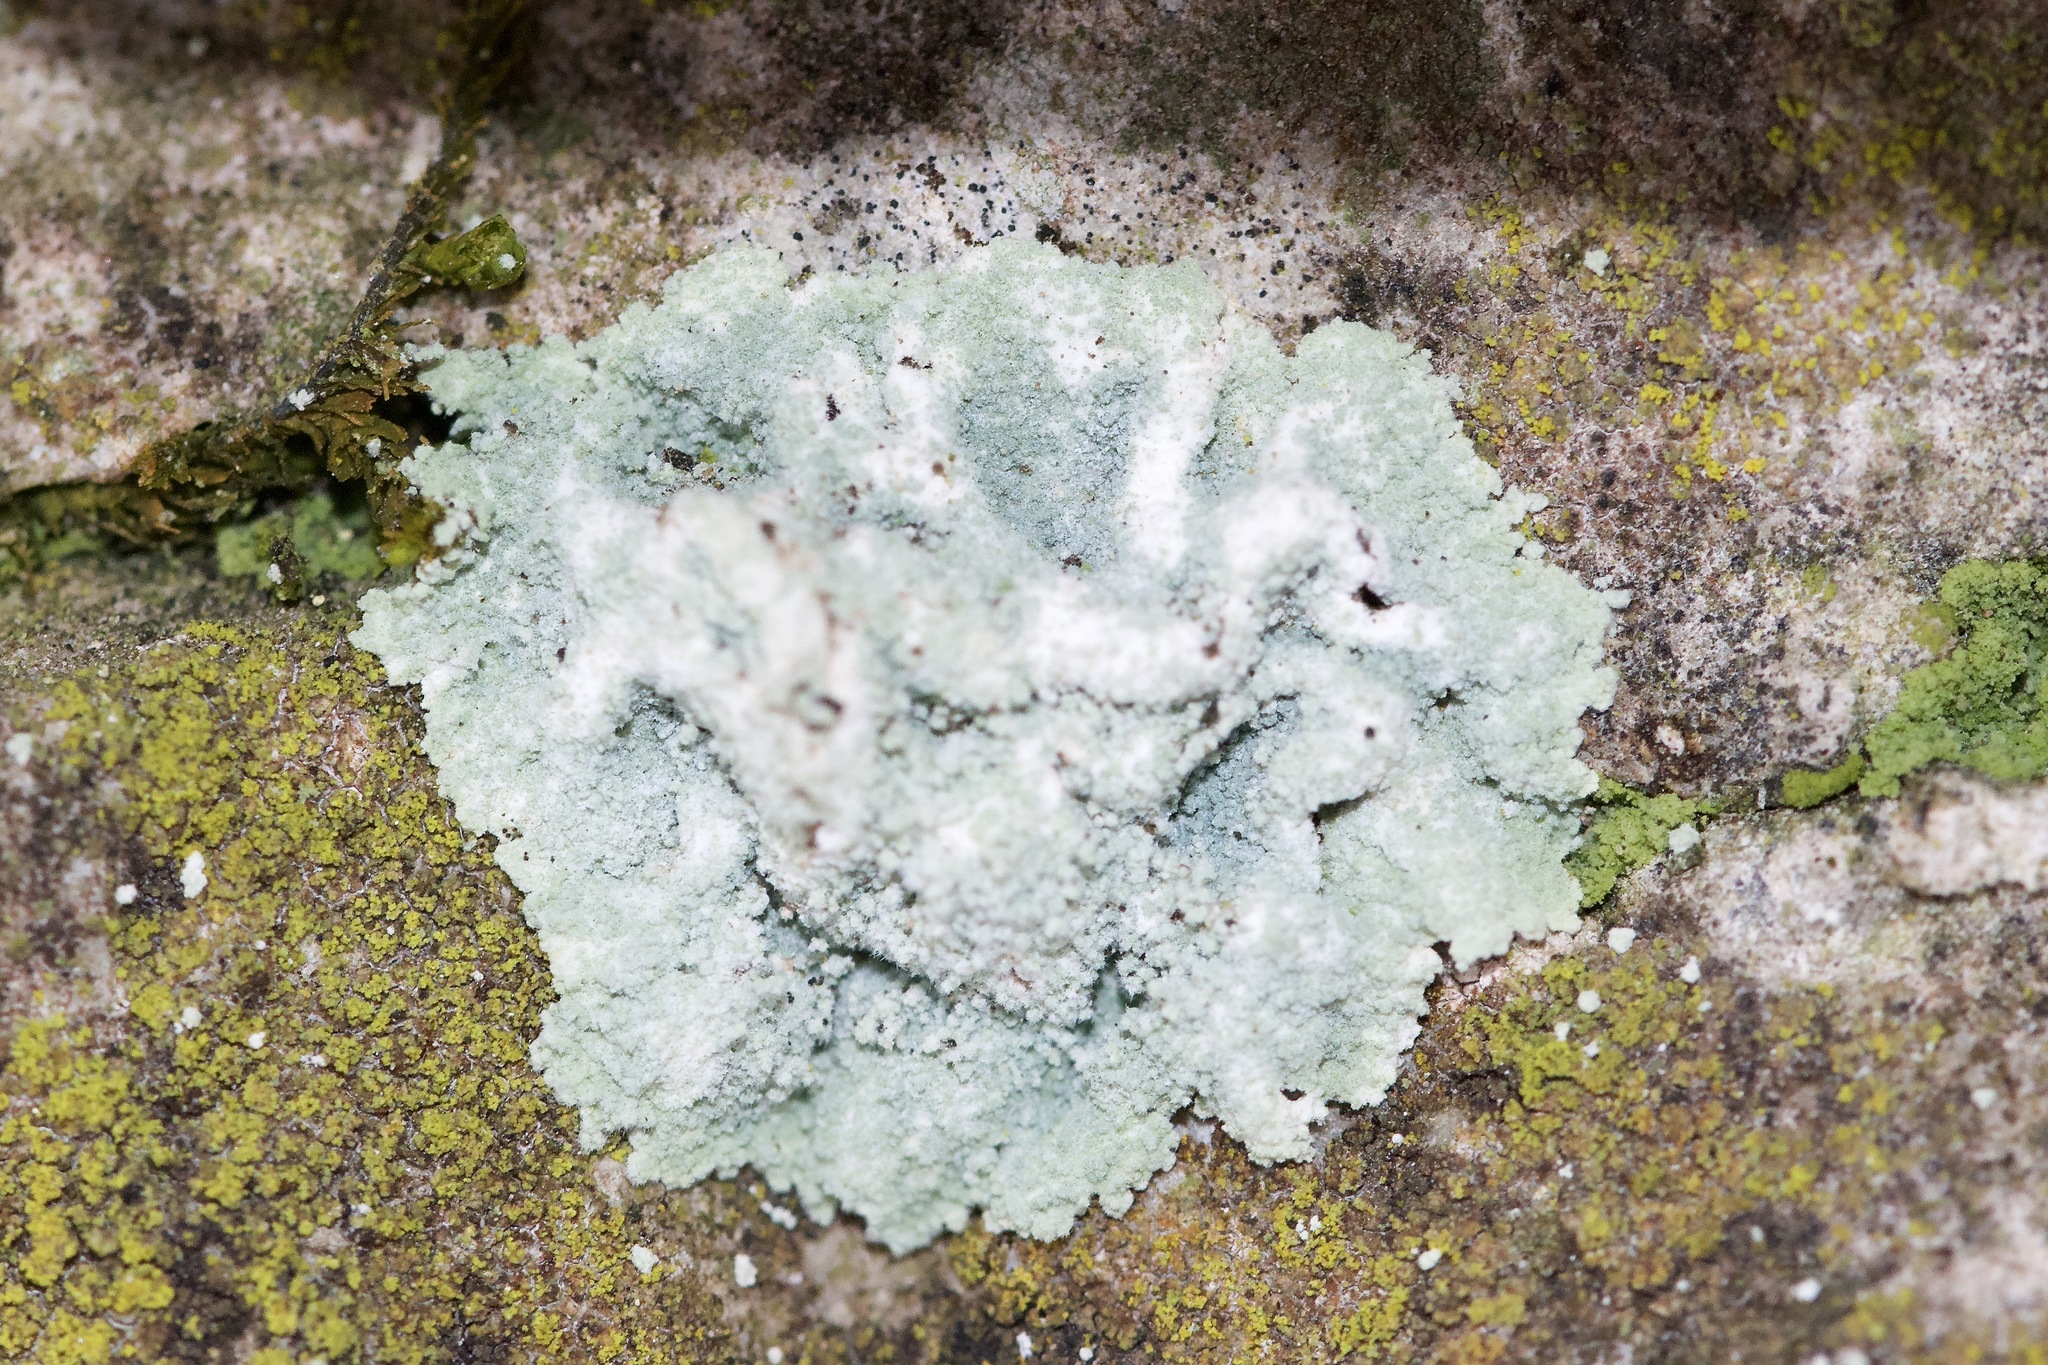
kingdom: Fungi
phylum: Ascomycota
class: Lecanoromycetes
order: Lecanorales
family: Stereocaulaceae
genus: Lepraria
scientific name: Lepraria lobificans
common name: Fluffy dust lichen
